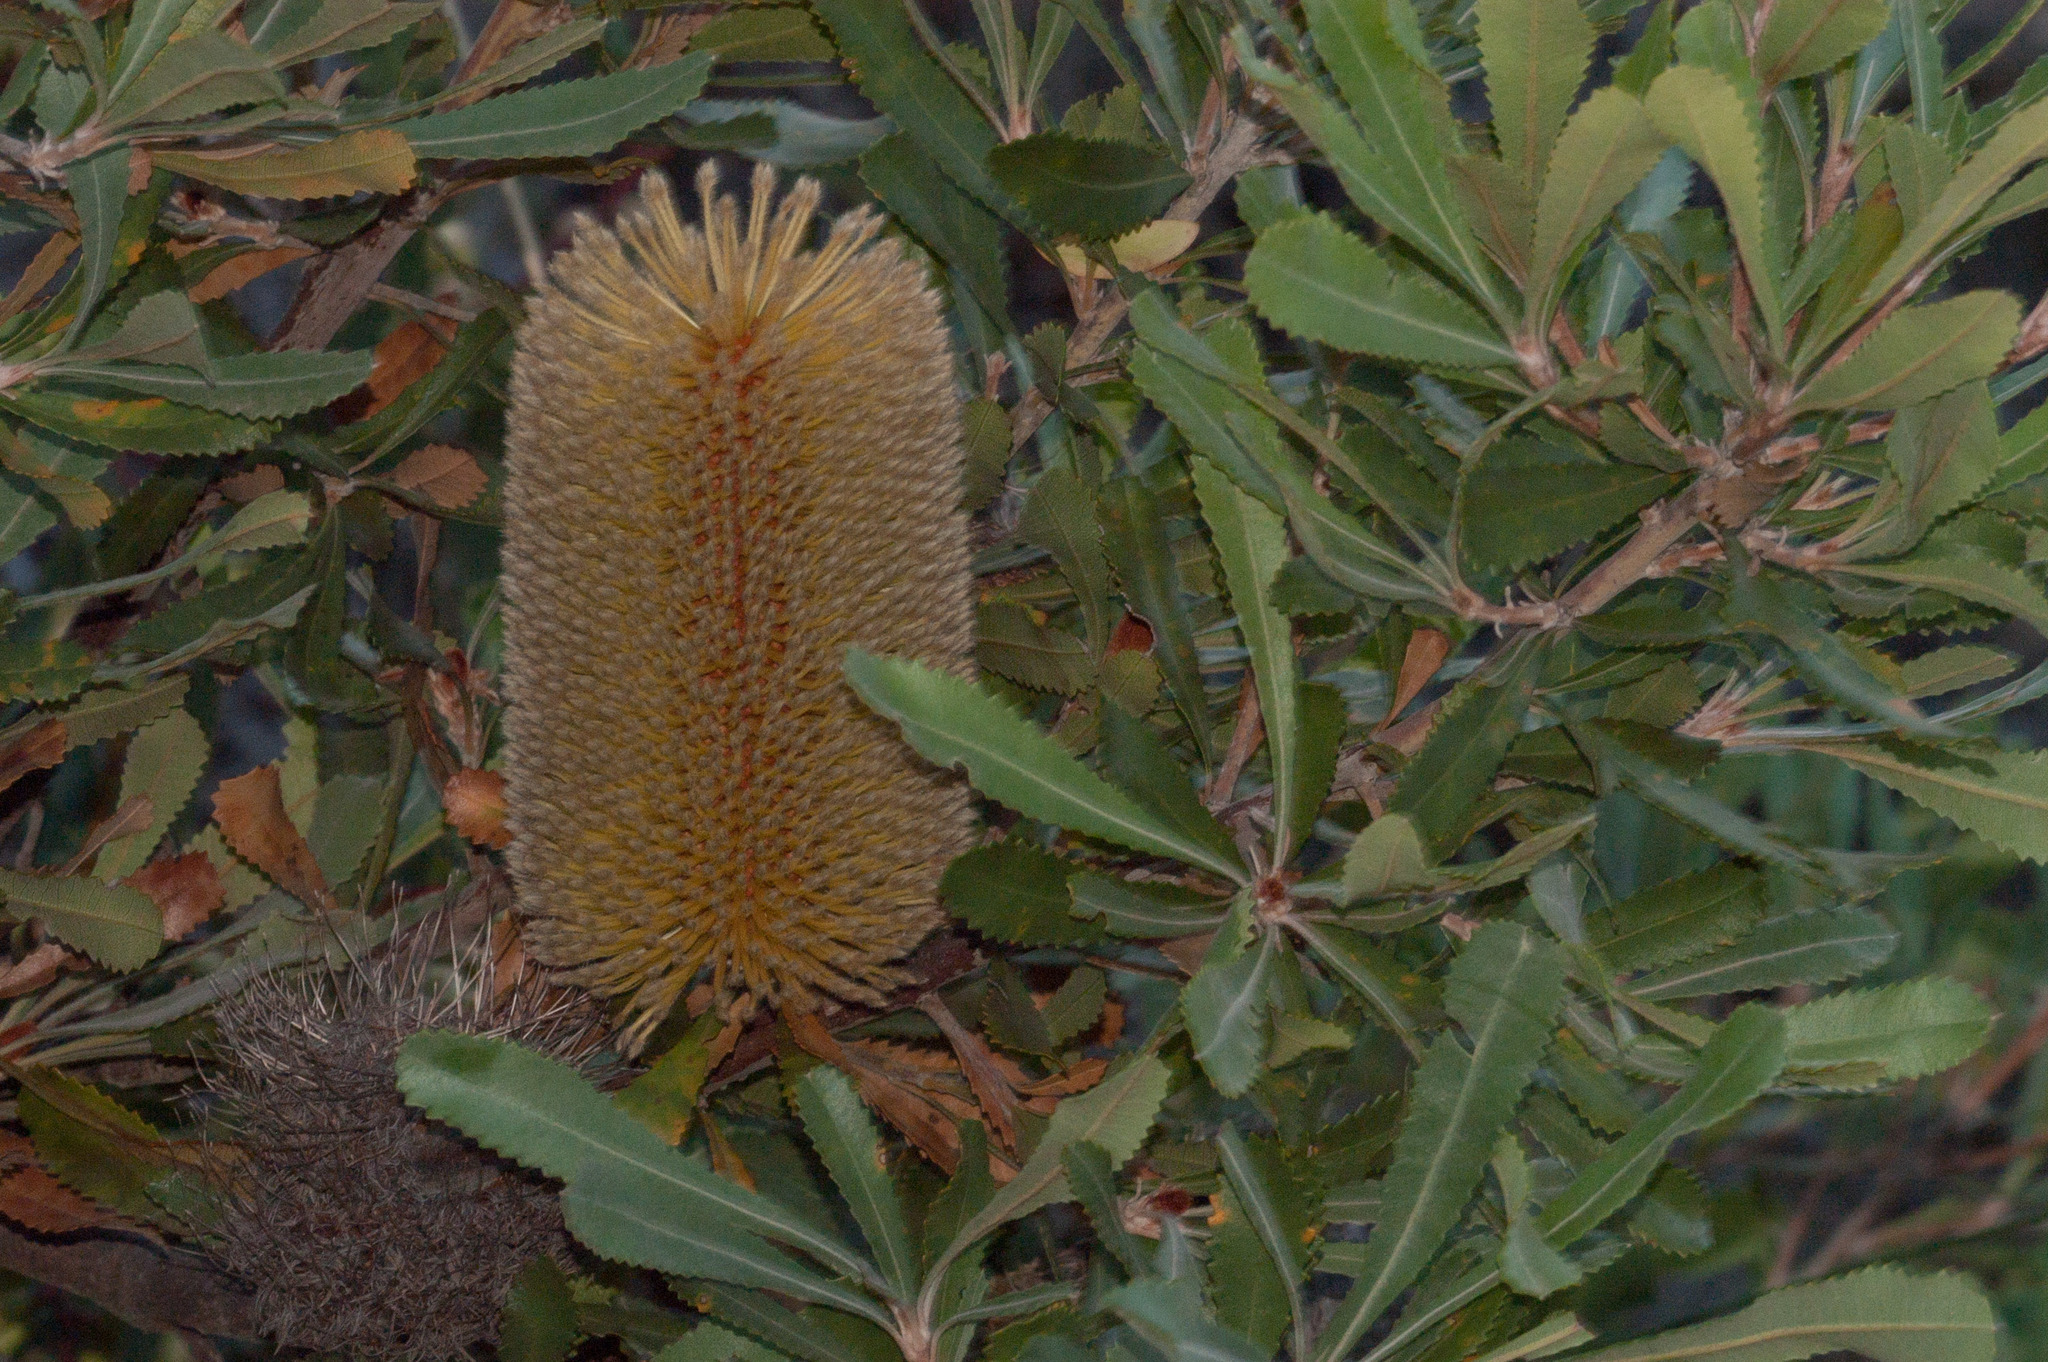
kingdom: Plantae
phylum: Tracheophyta
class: Magnoliopsida
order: Proteales
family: Proteaceae
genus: Banksia
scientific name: Banksia ornata
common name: Desert banksia
